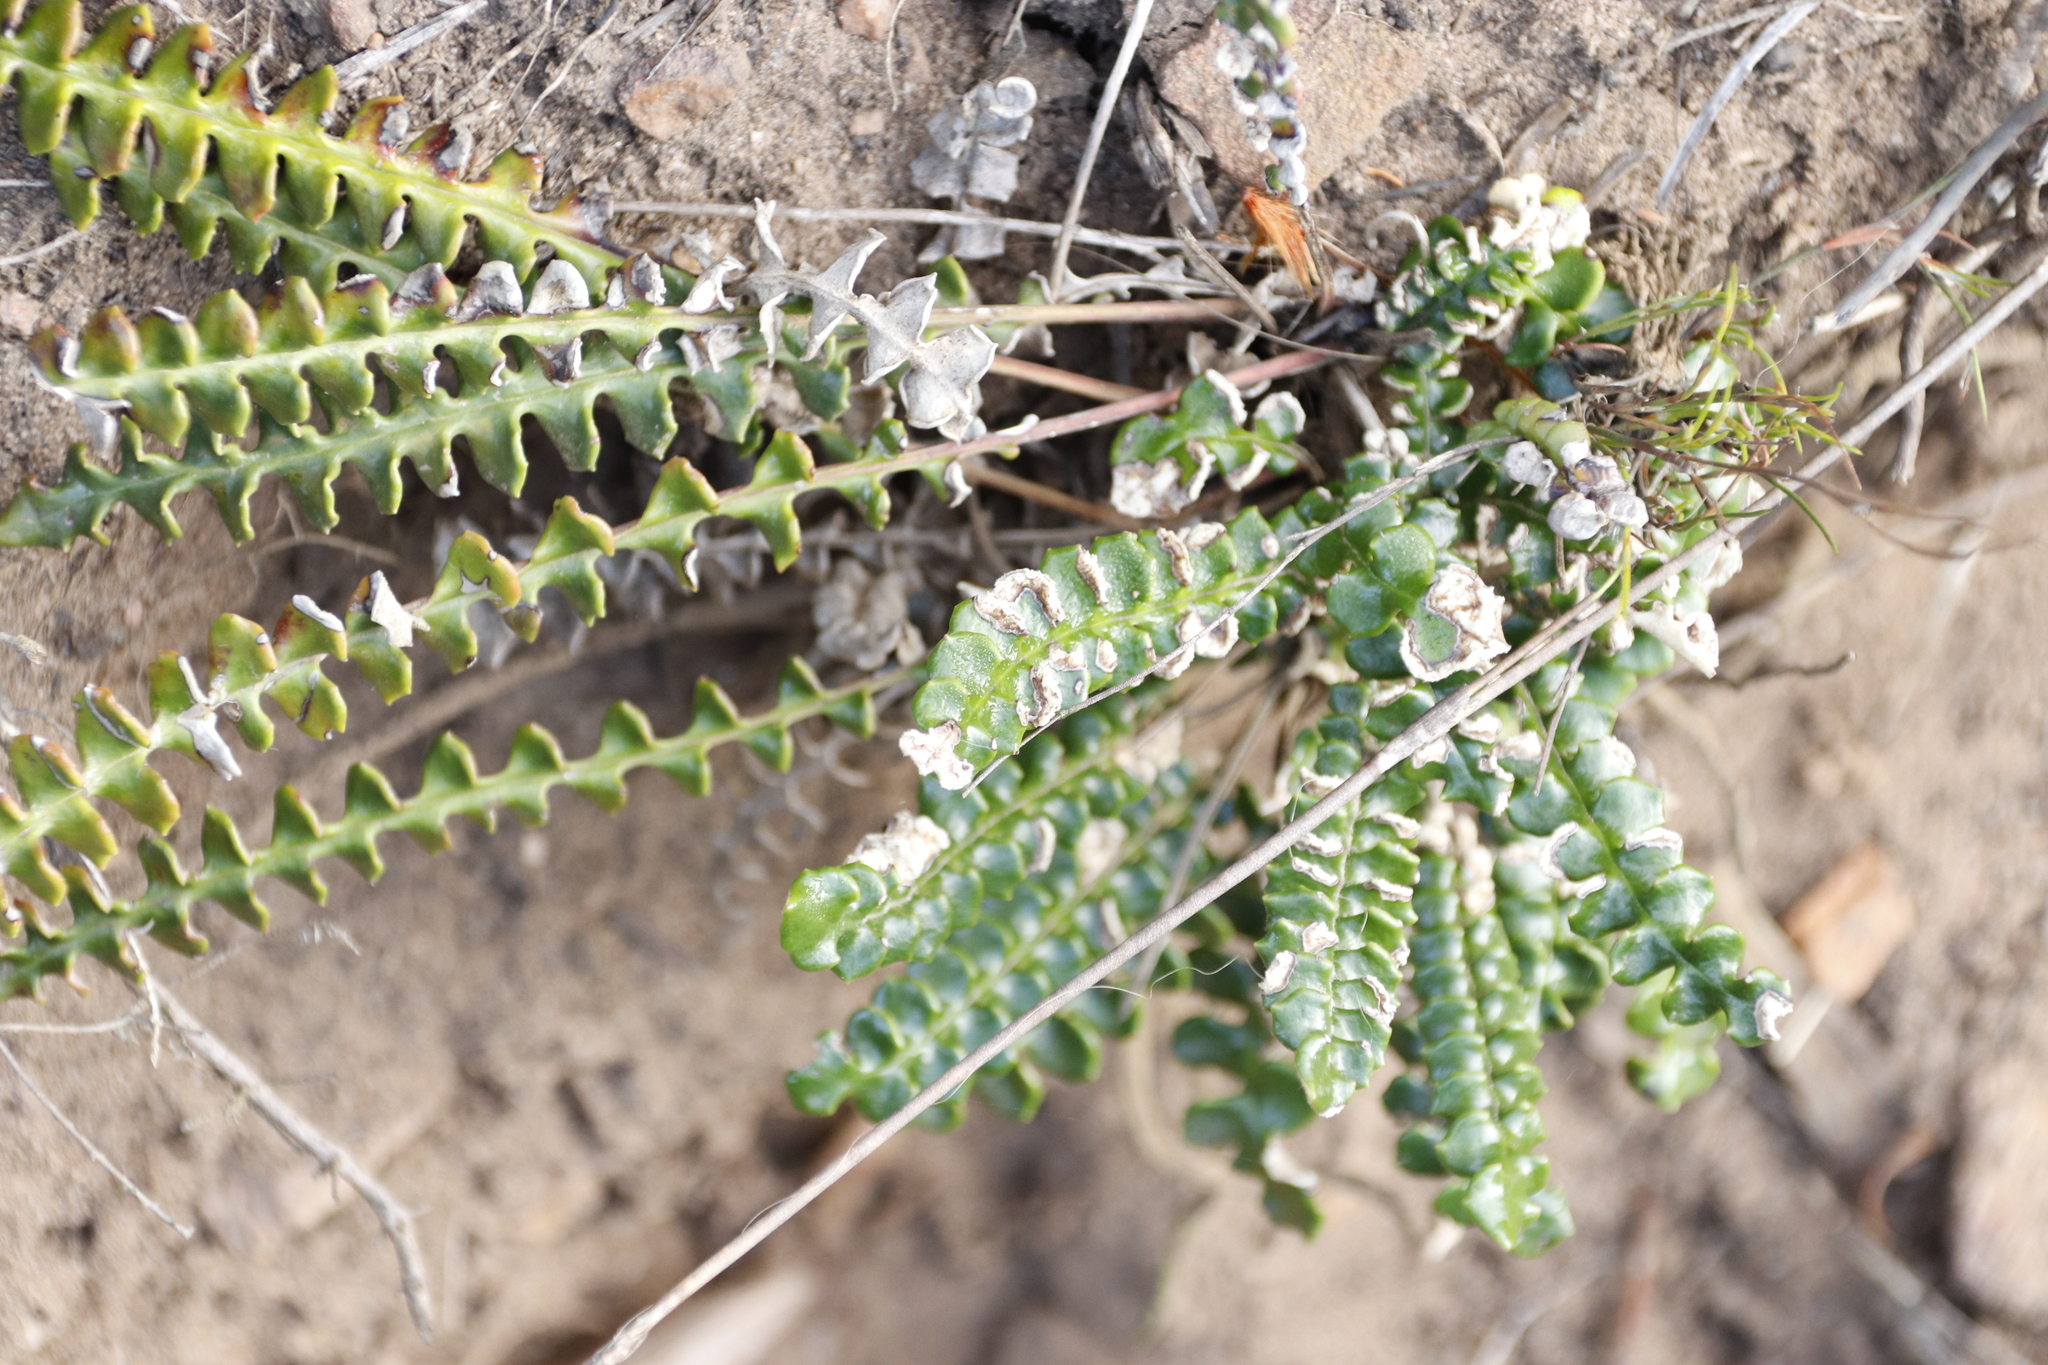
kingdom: Plantae
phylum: Tracheophyta
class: Magnoliopsida
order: Asterales
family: Asteraceae
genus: Gerbera
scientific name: Gerbera linnaei
